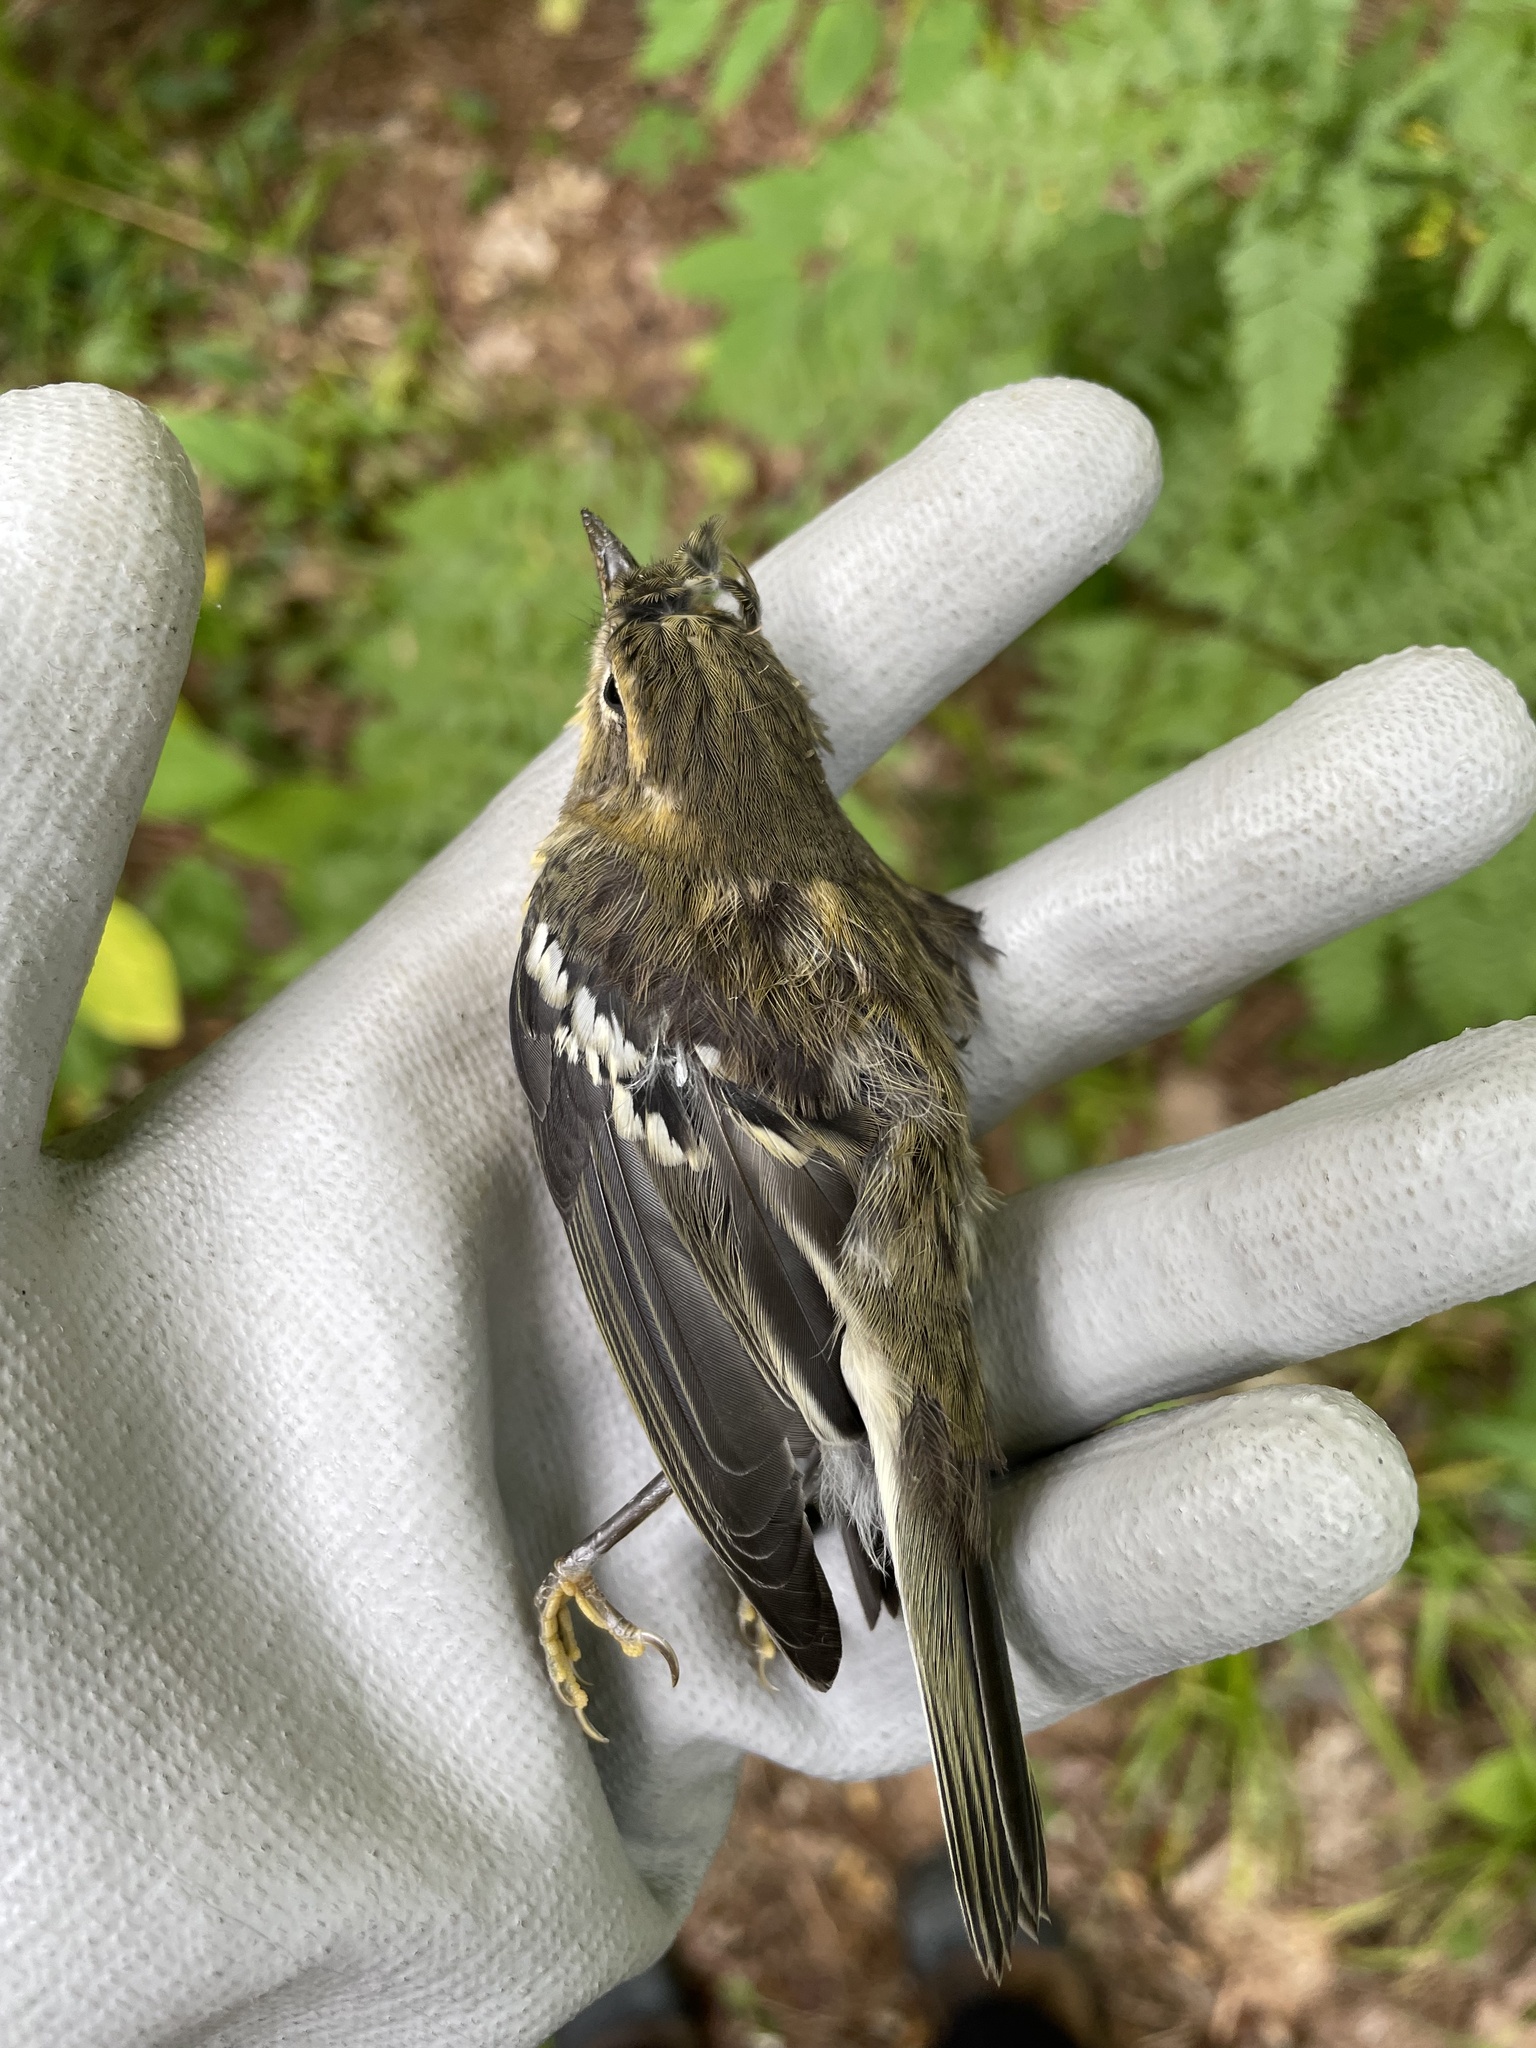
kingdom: Animalia
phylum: Chordata
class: Aves
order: Passeriformes
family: Parulidae
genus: Setophaga
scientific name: Setophaga fusca
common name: Blackburnian warbler
